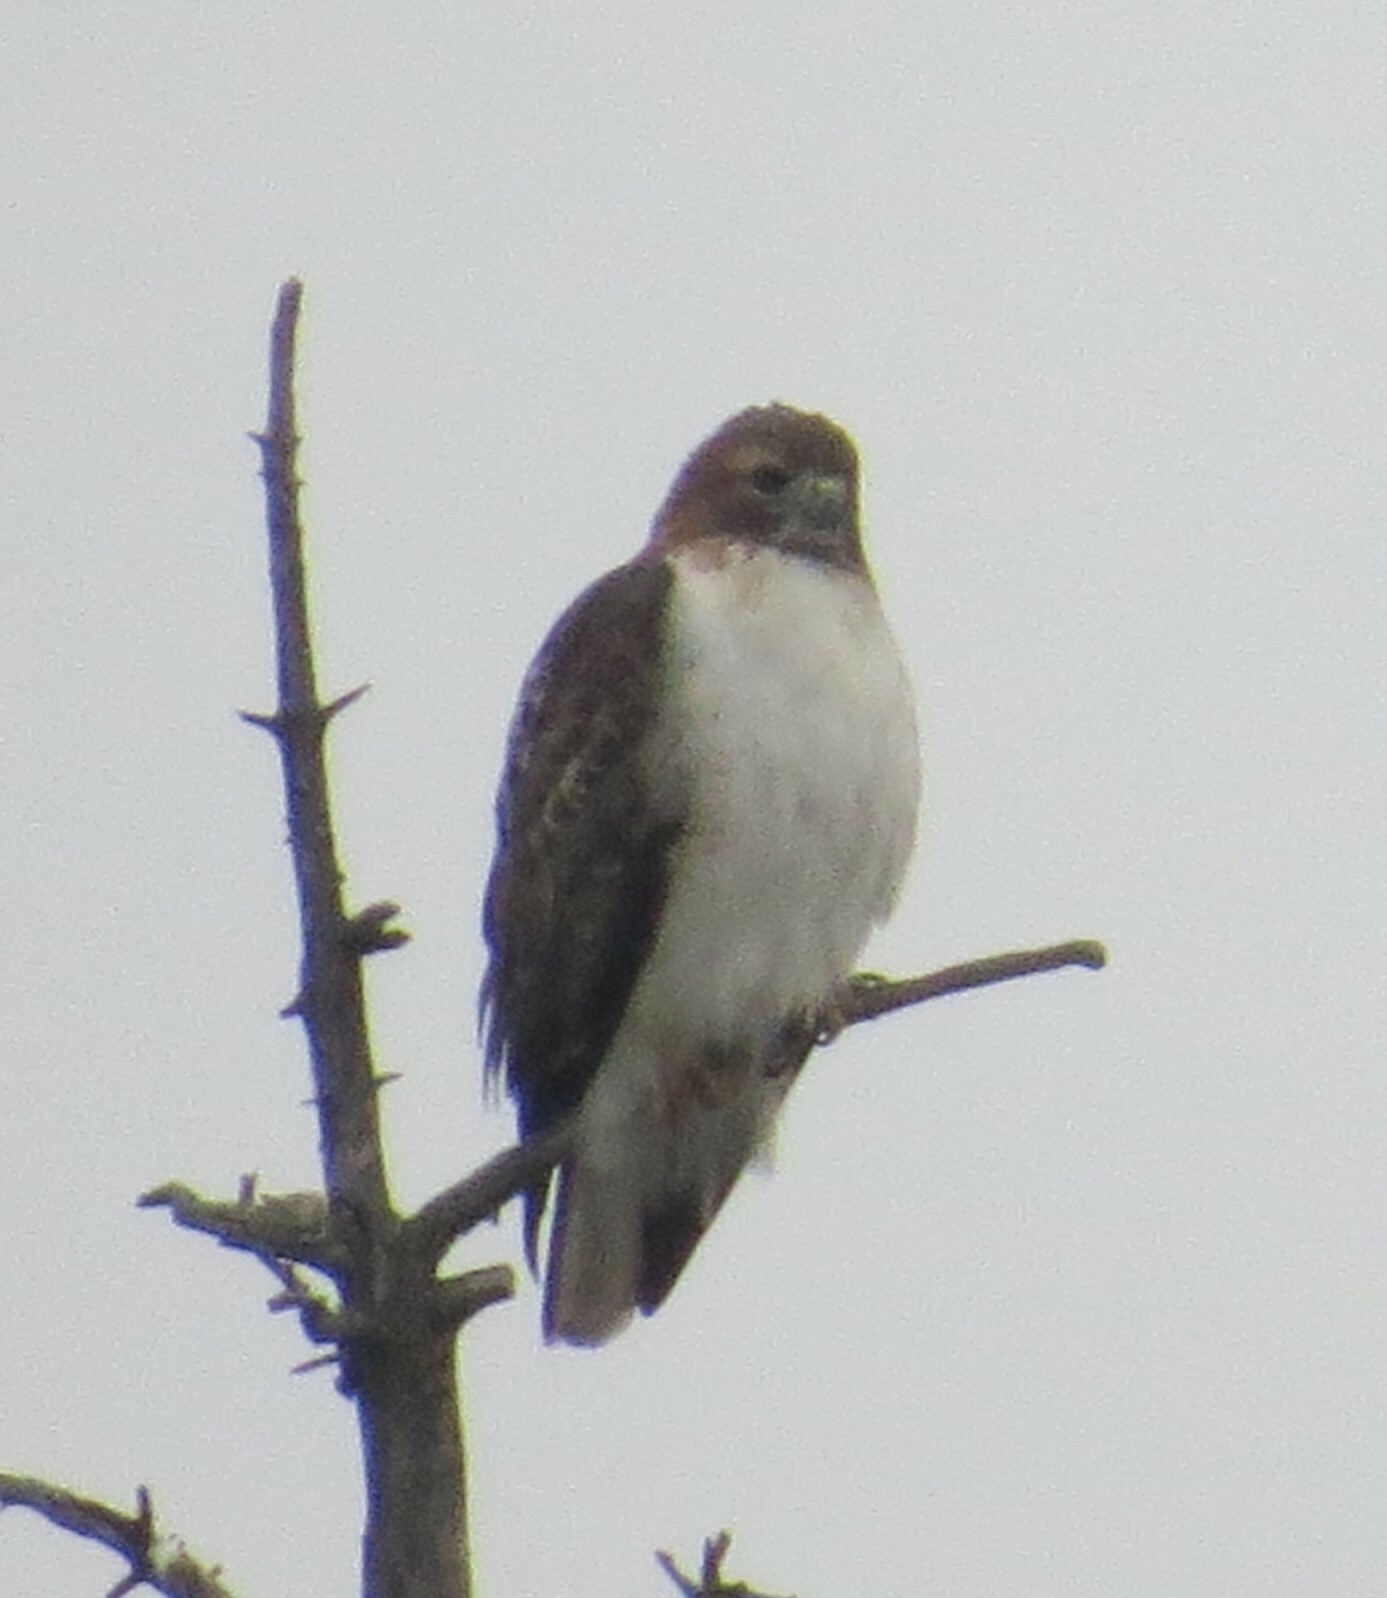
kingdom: Animalia
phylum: Chordata
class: Aves
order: Accipitriformes
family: Accipitridae
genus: Buteo
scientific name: Buteo jamaicensis
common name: Red-tailed hawk
